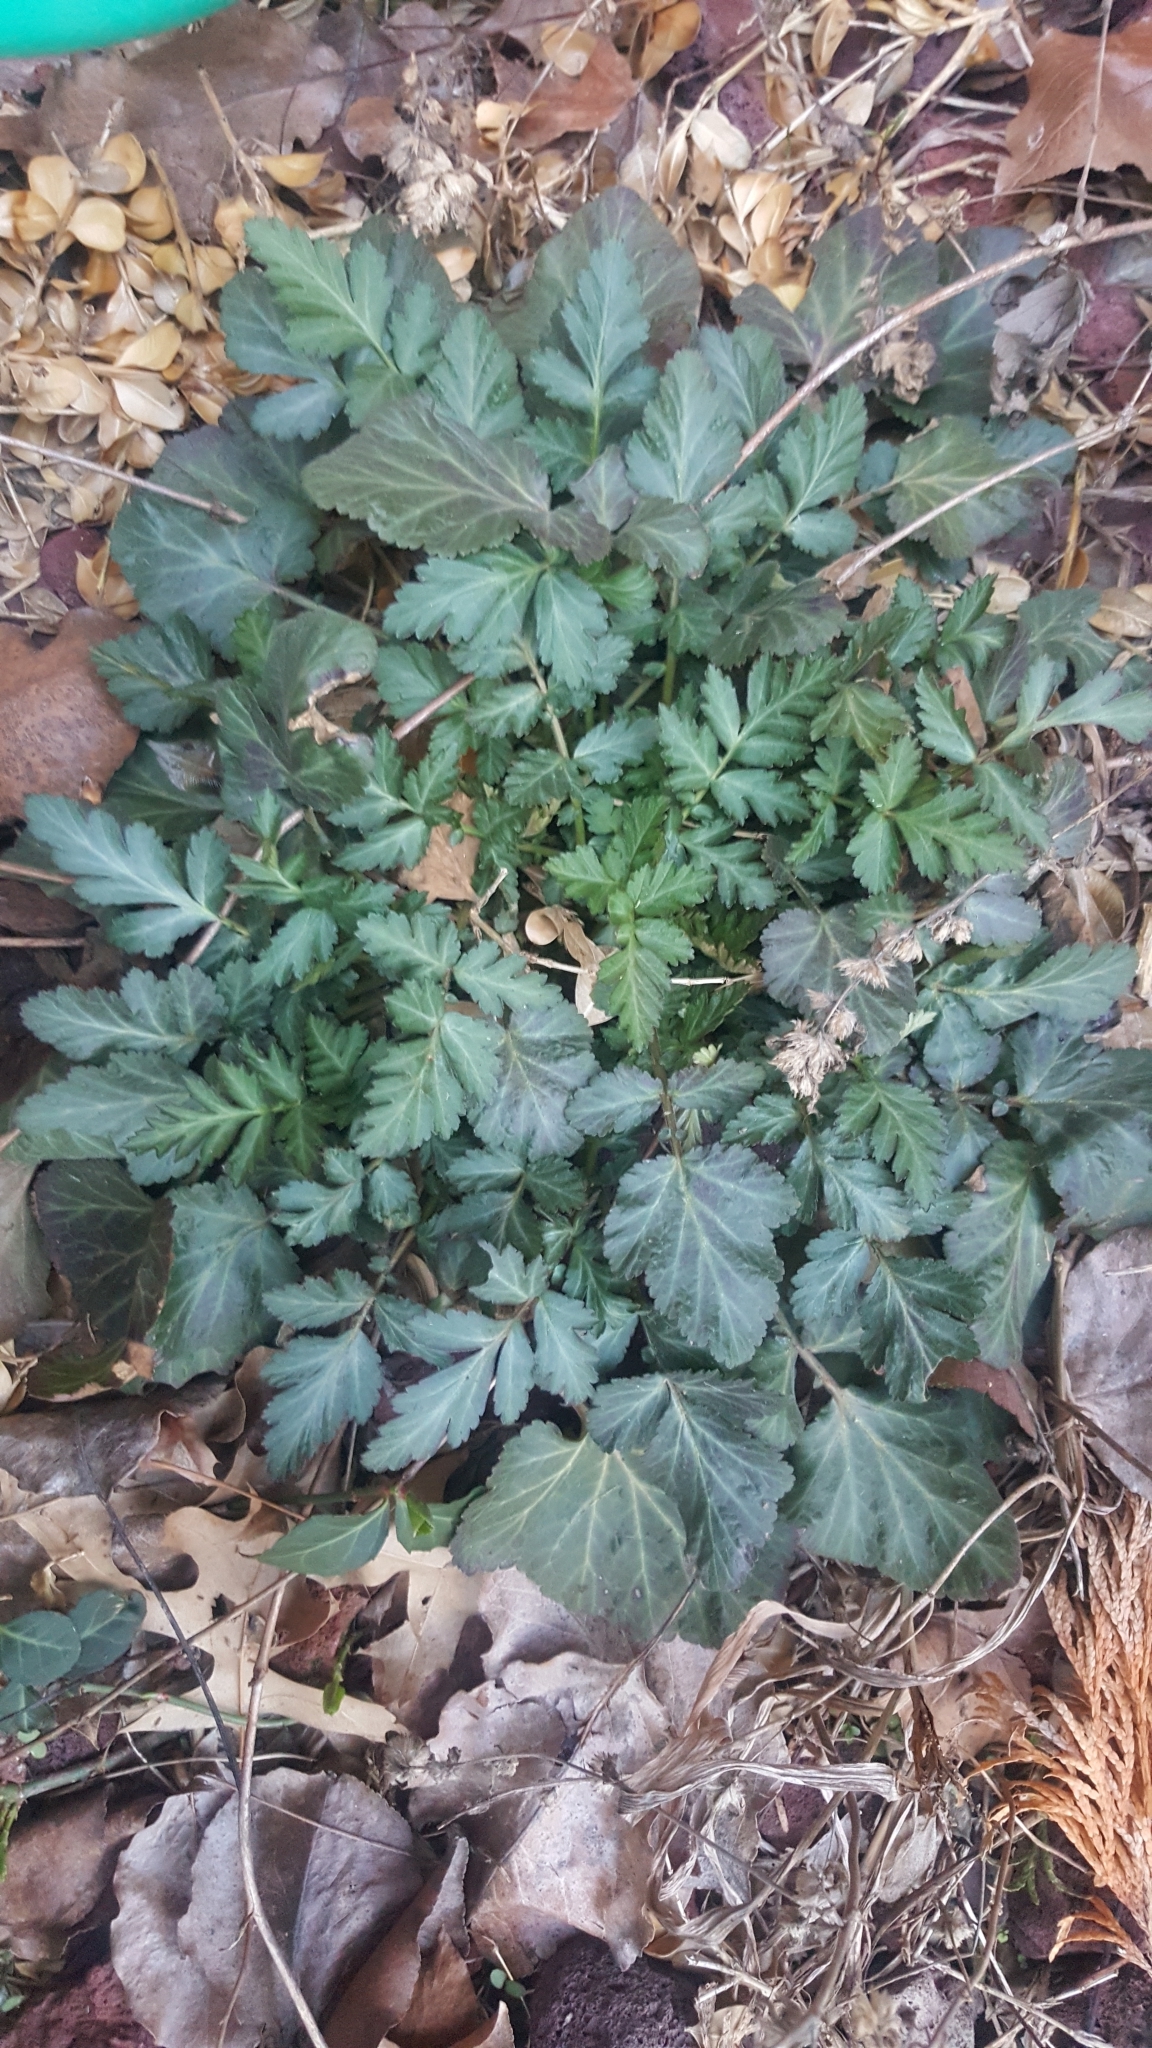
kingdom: Plantae
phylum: Tracheophyta
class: Magnoliopsida
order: Rosales
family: Rosaceae
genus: Geum
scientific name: Geum canadense
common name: White avens
